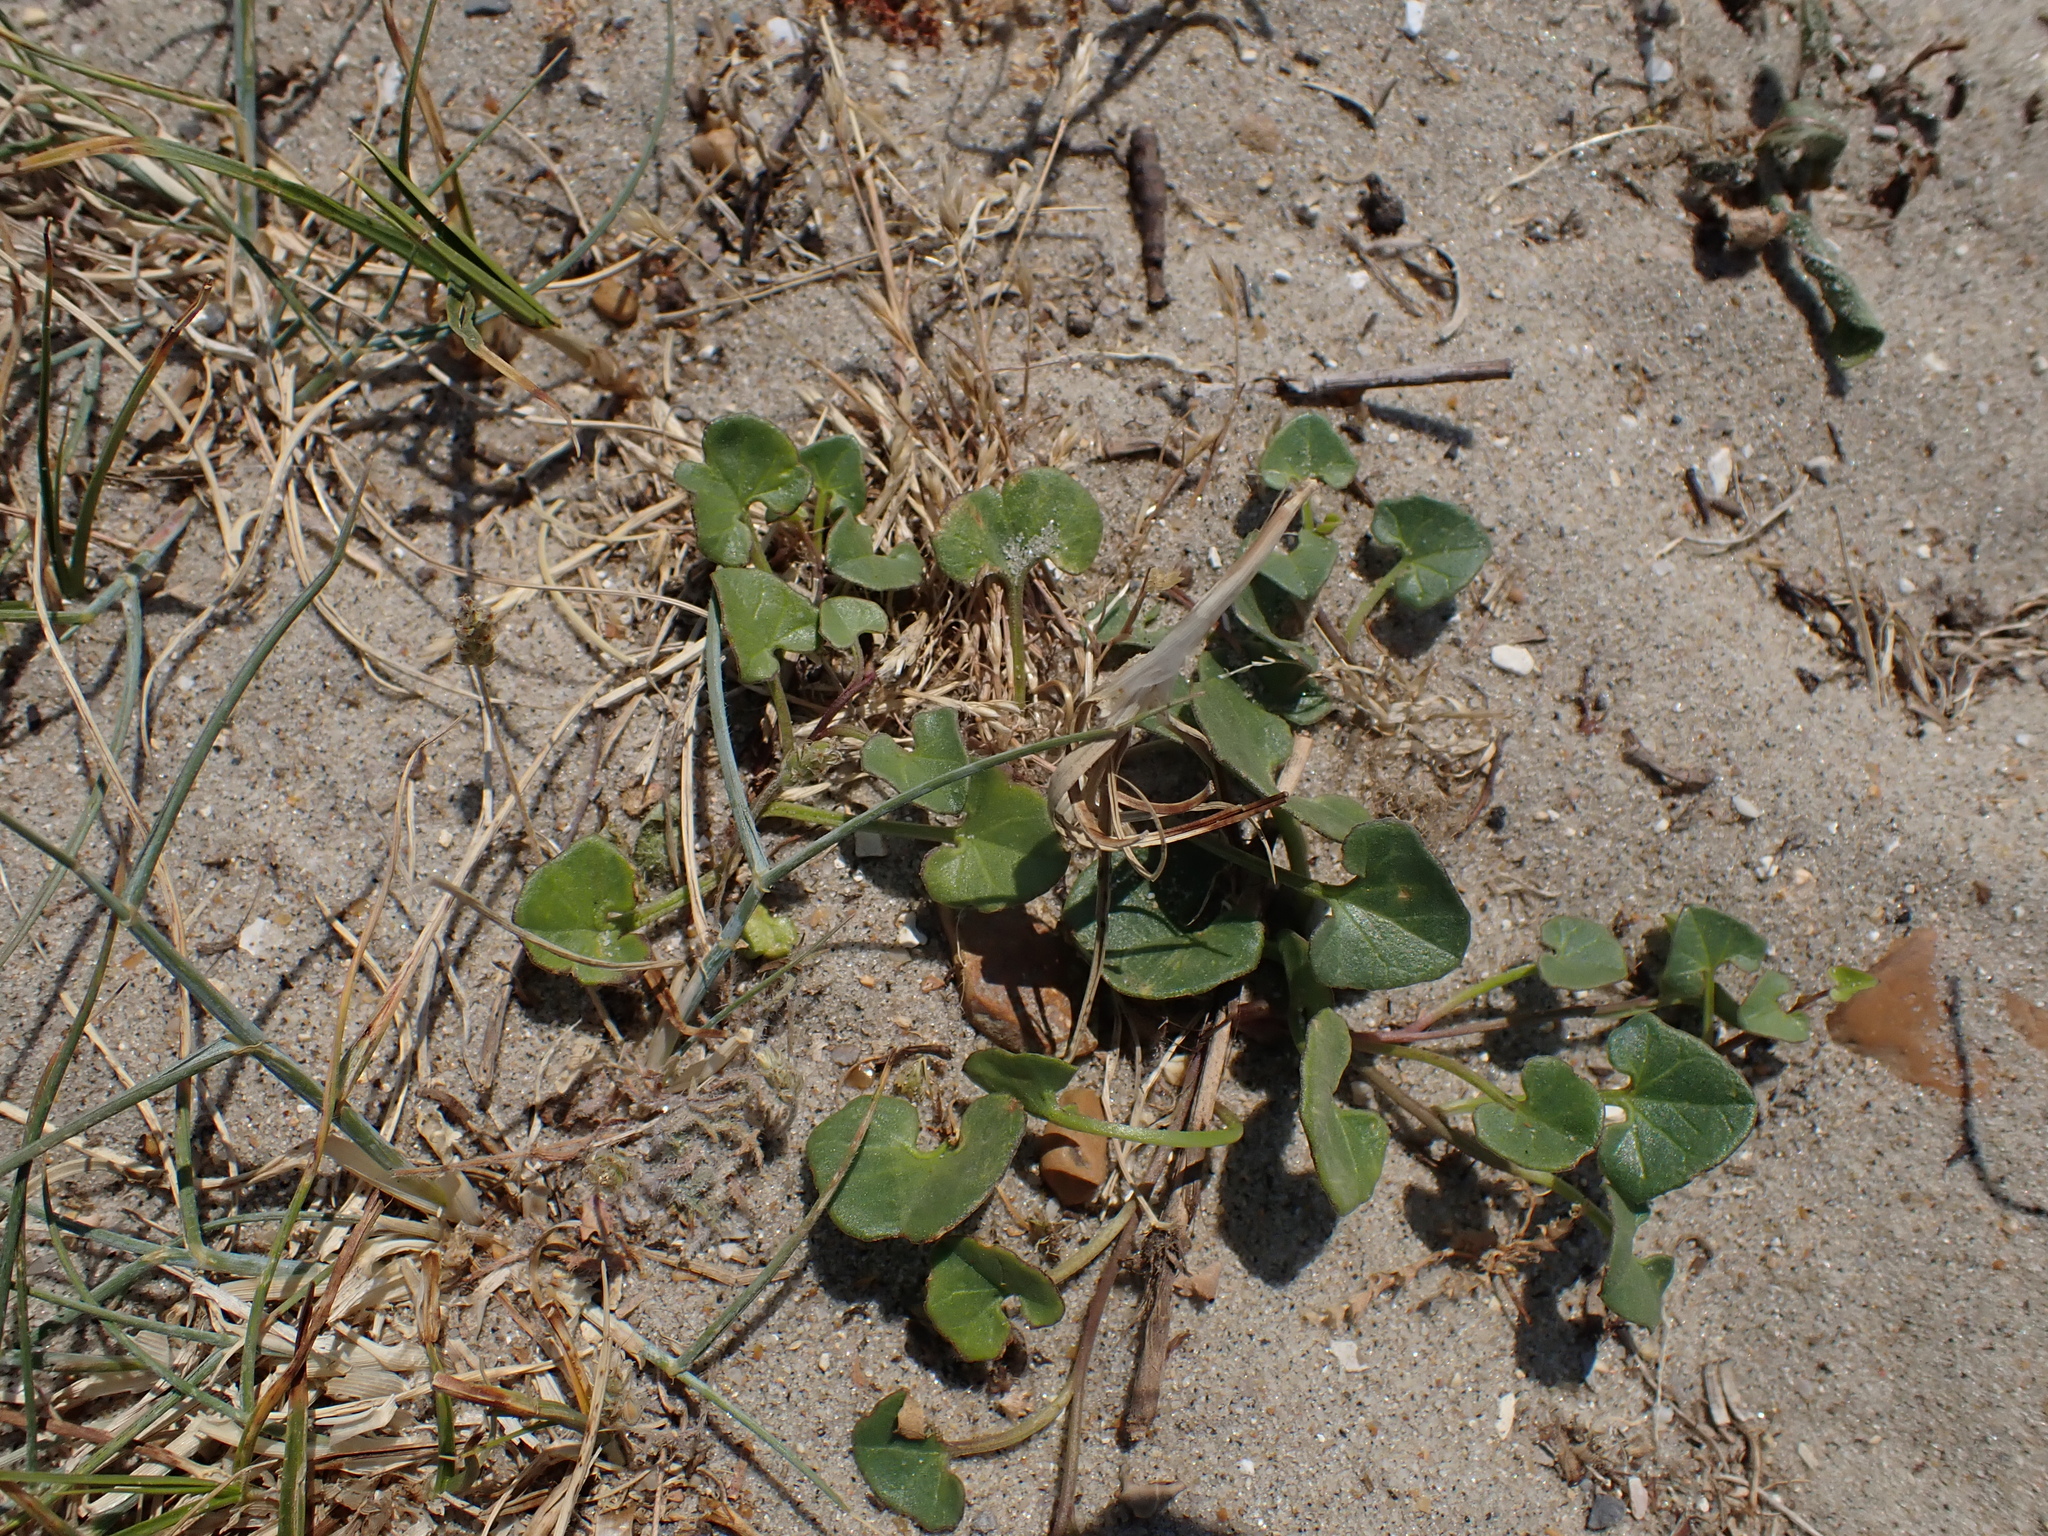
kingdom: Plantae
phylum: Tracheophyta
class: Magnoliopsida
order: Solanales
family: Convolvulaceae
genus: Calystegia
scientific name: Calystegia soldanella
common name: Sea bindweed
